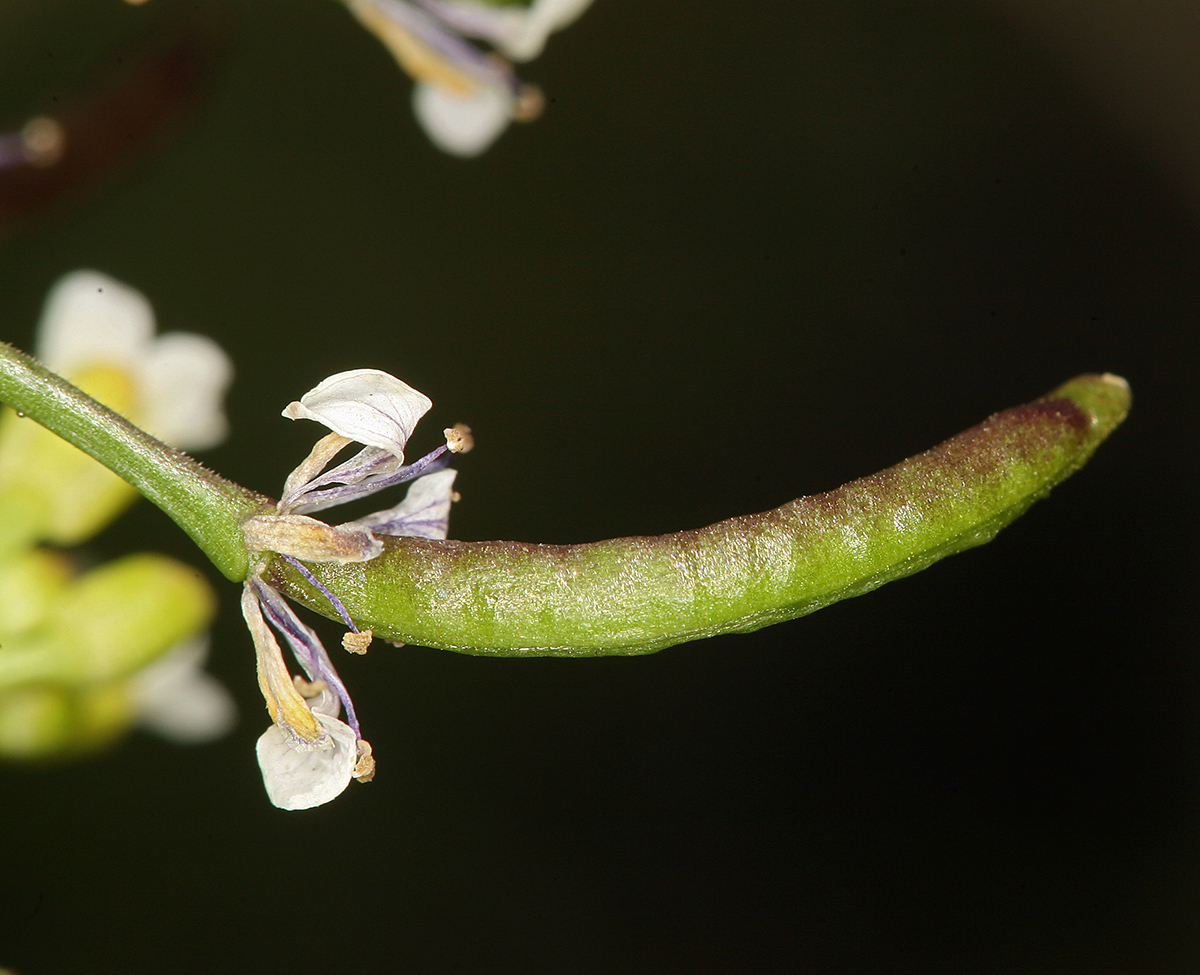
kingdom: Plantae
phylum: Tracheophyta
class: Magnoliopsida
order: Brassicales
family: Brassicaceae
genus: Nasturtium
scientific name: Nasturtium officinale
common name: Watercress
